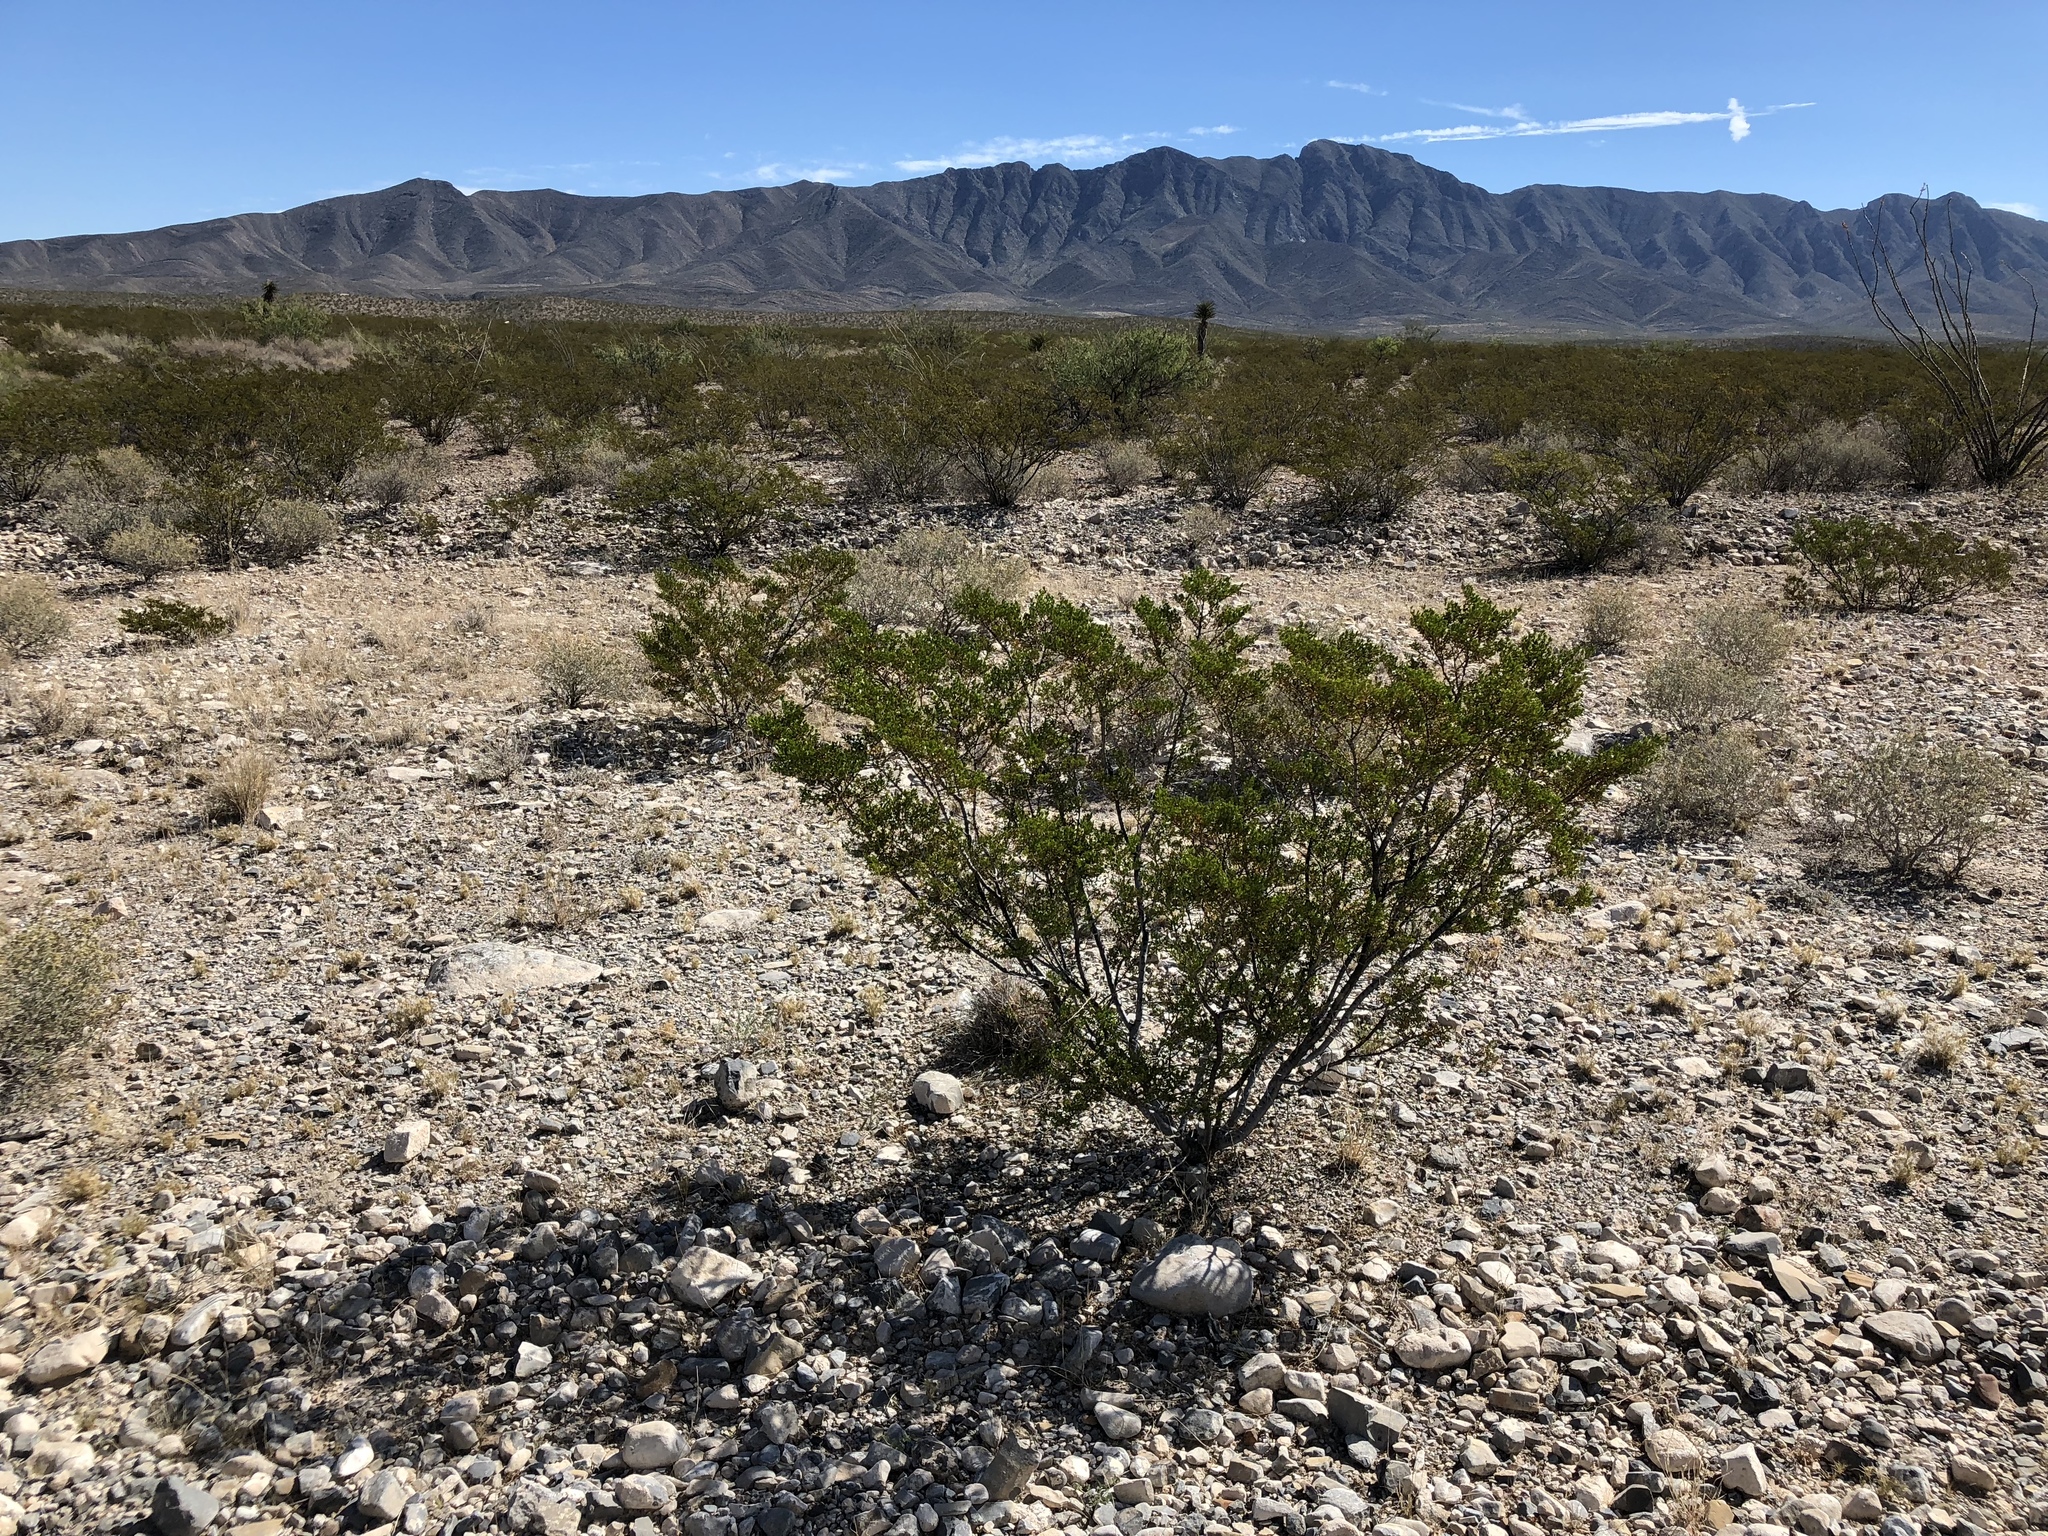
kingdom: Plantae
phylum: Tracheophyta
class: Magnoliopsida
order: Zygophyllales
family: Zygophyllaceae
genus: Larrea
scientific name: Larrea tridentata
